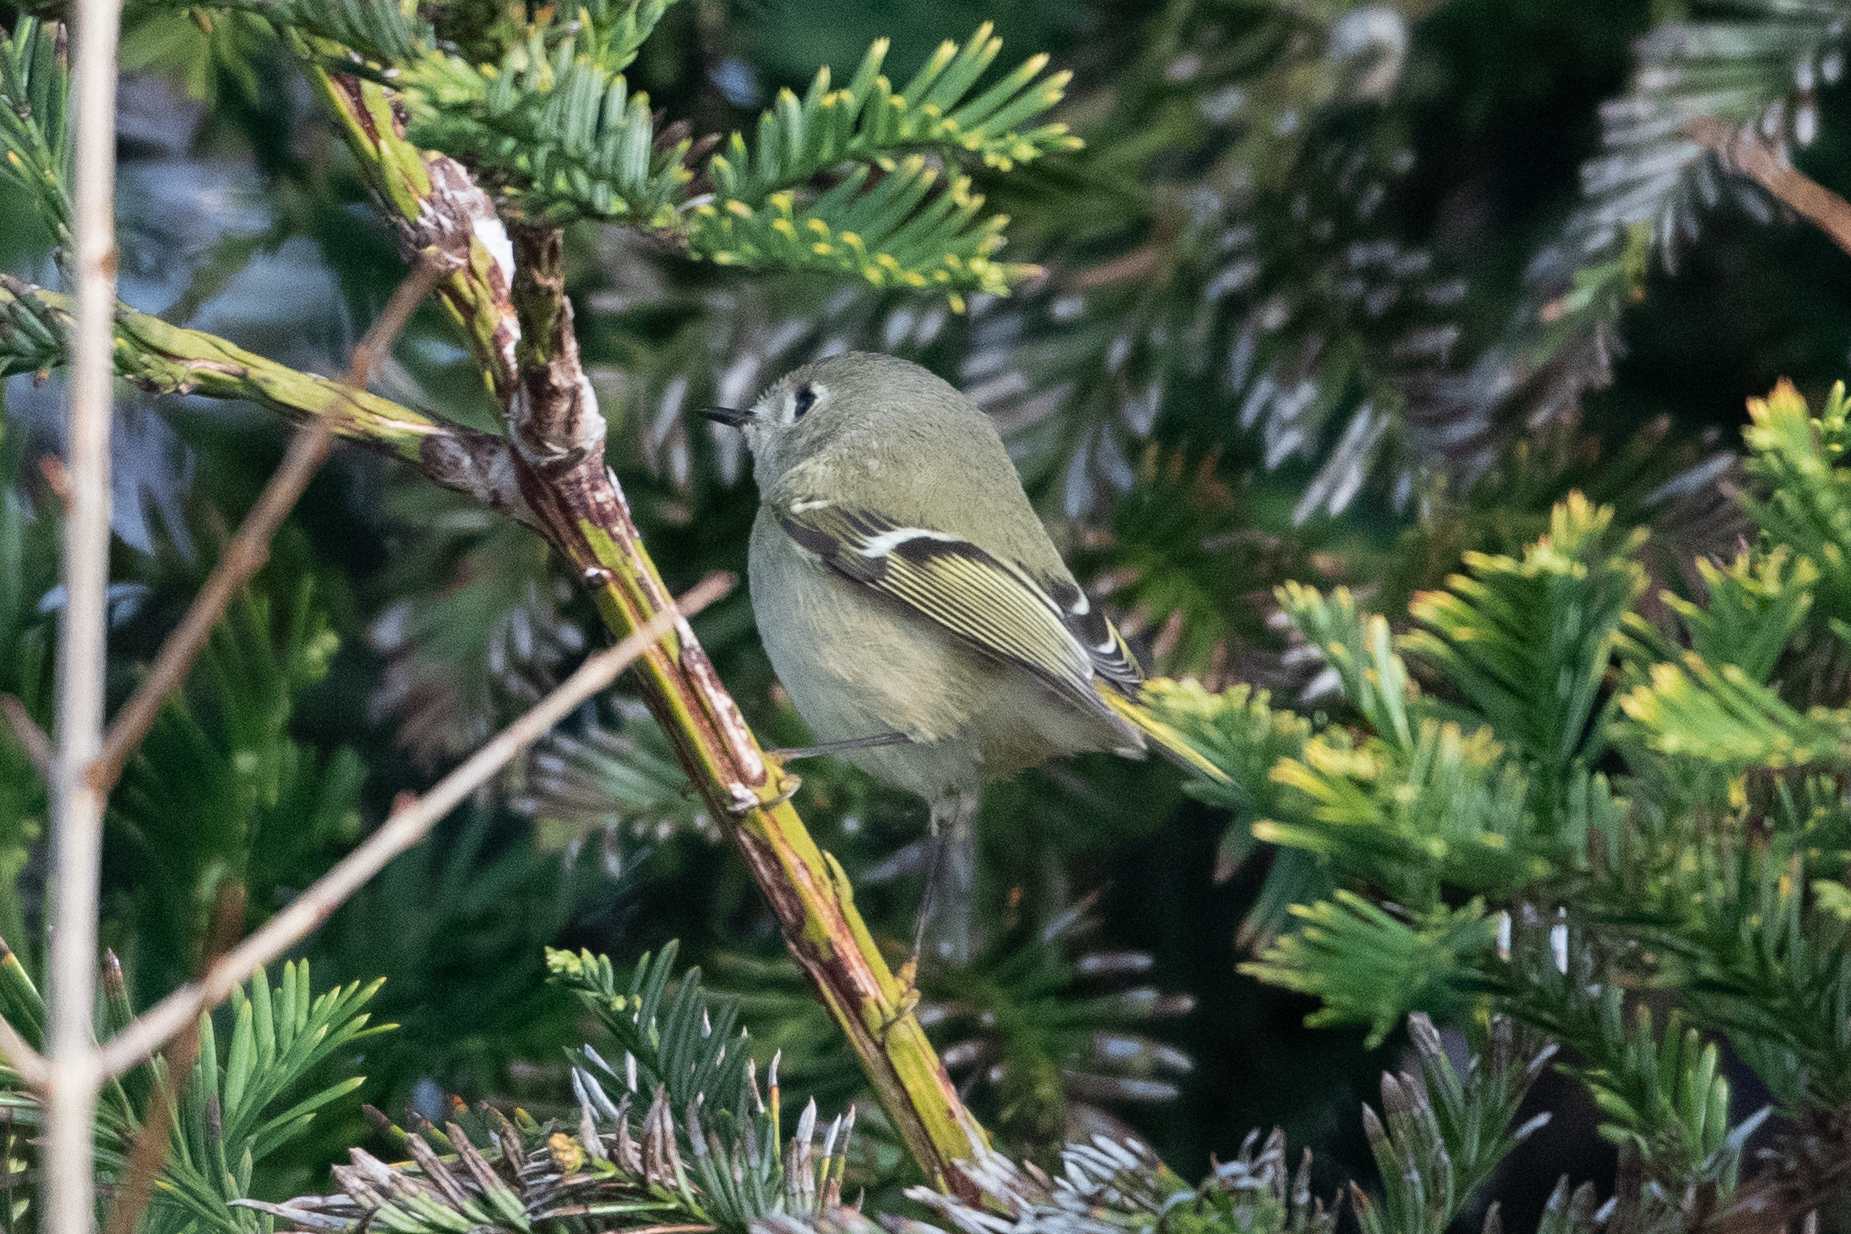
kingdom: Animalia
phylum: Chordata
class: Aves
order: Passeriformes
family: Regulidae
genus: Regulus
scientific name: Regulus calendula
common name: Ruby-crowned kinglet
